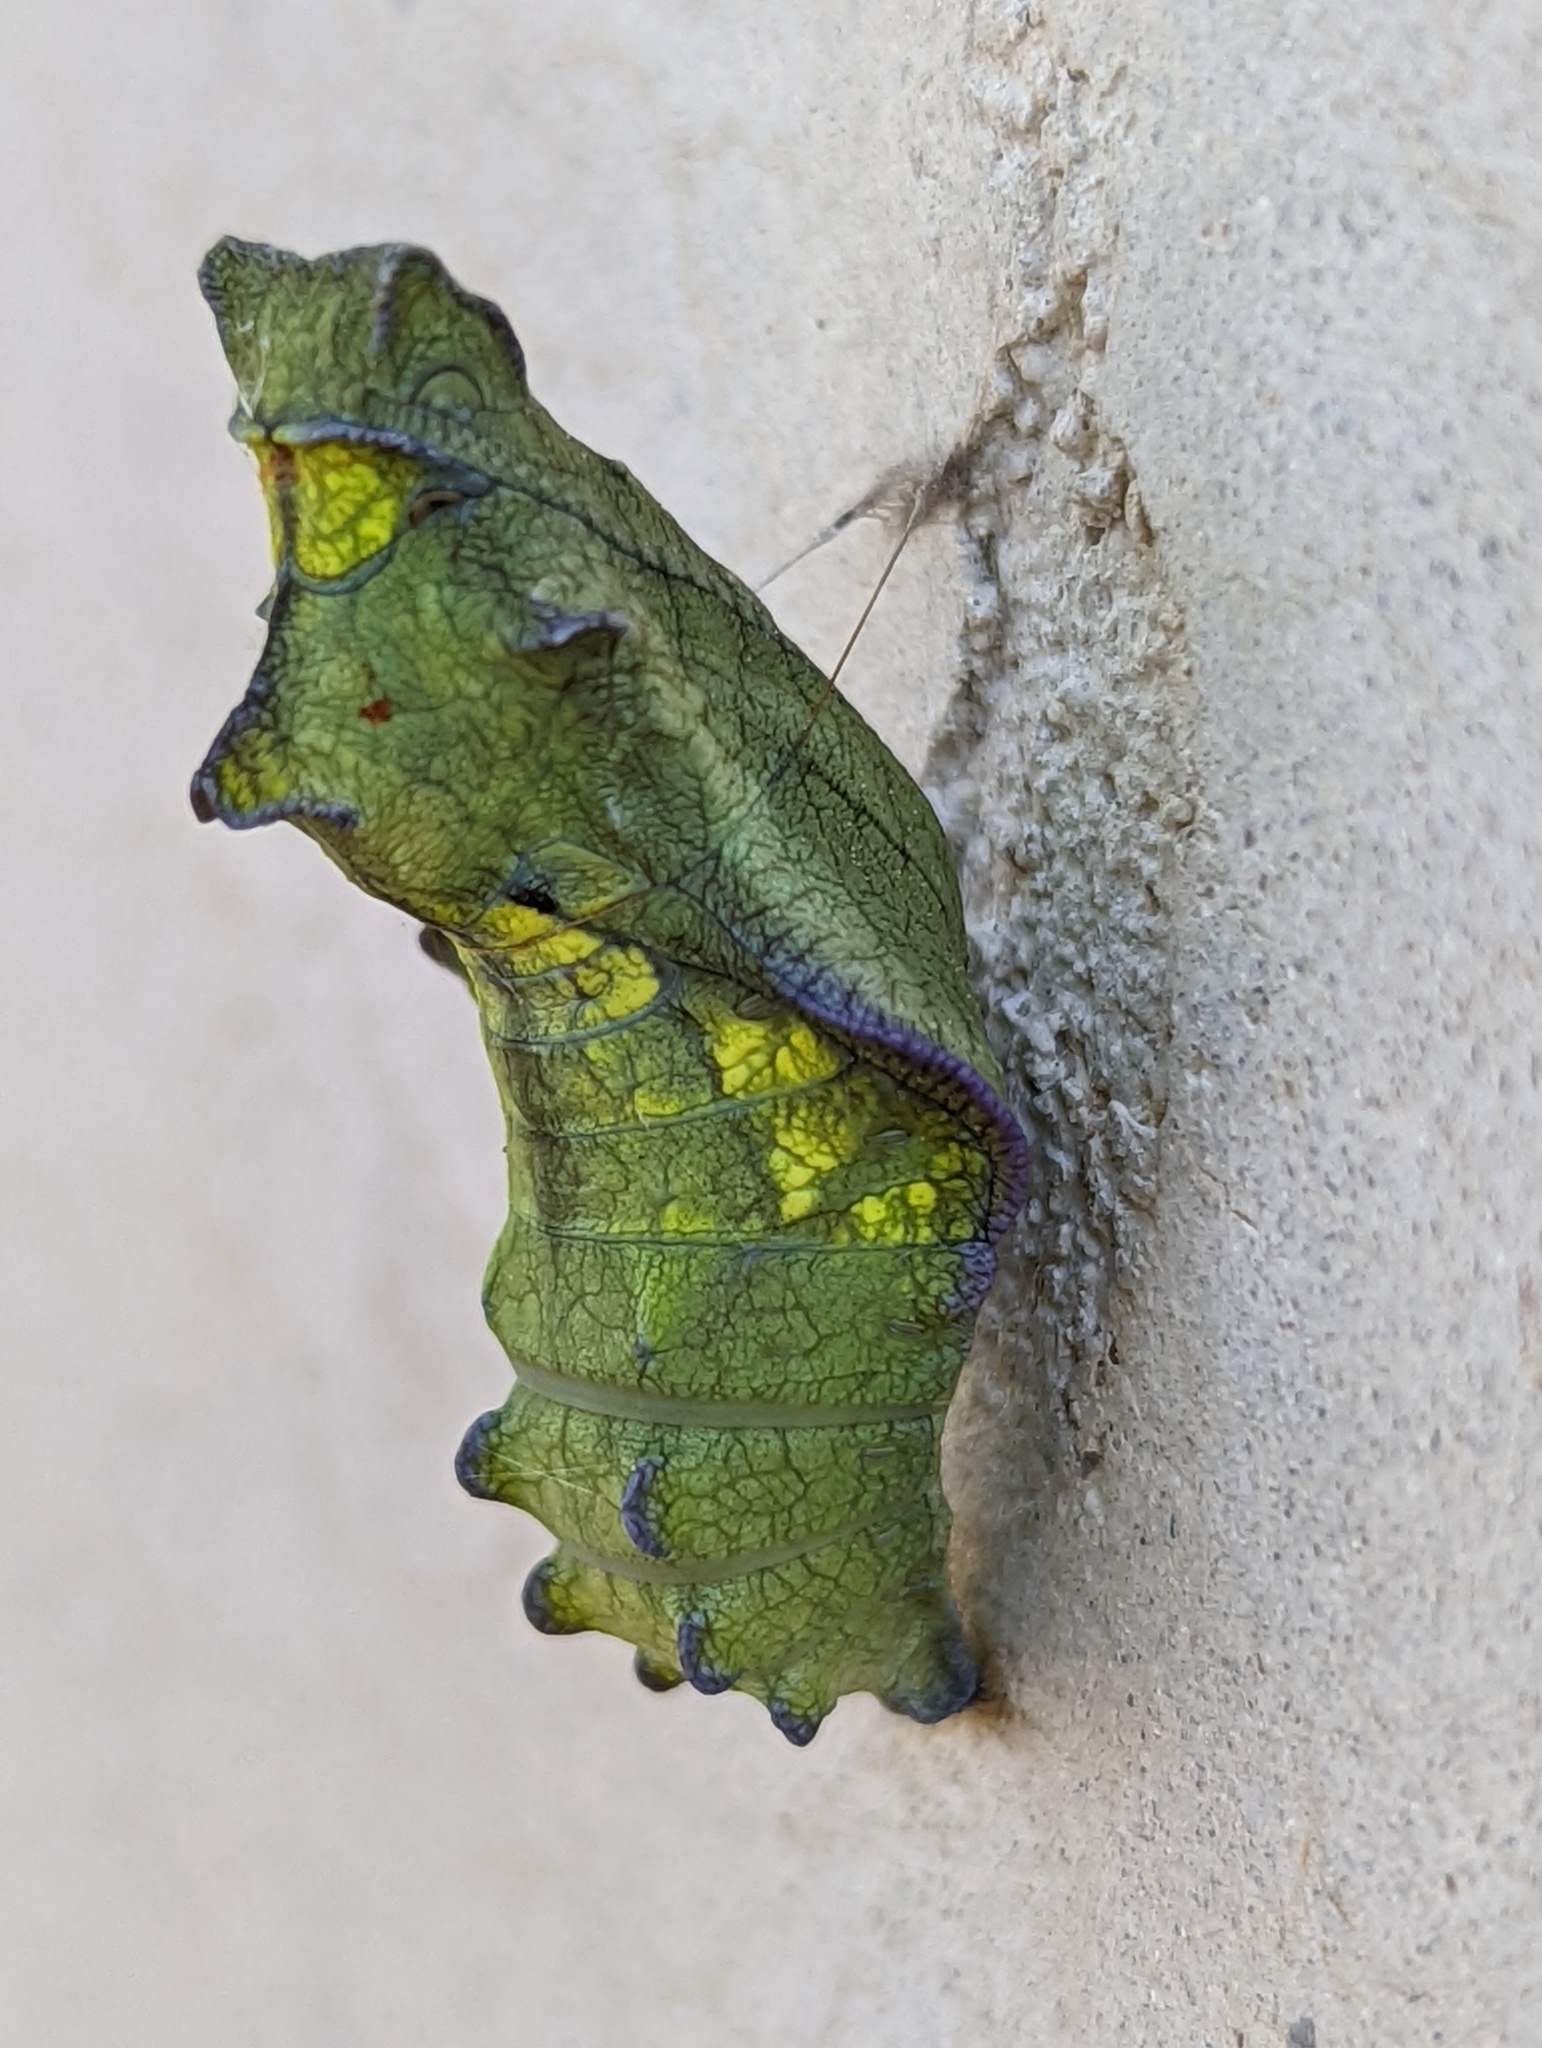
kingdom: Animalia
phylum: Arthropoda
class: Insecta
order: Lepidoptera
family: Papilionidae
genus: Battus
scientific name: Battus philenor
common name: Pipevine swallowtail
